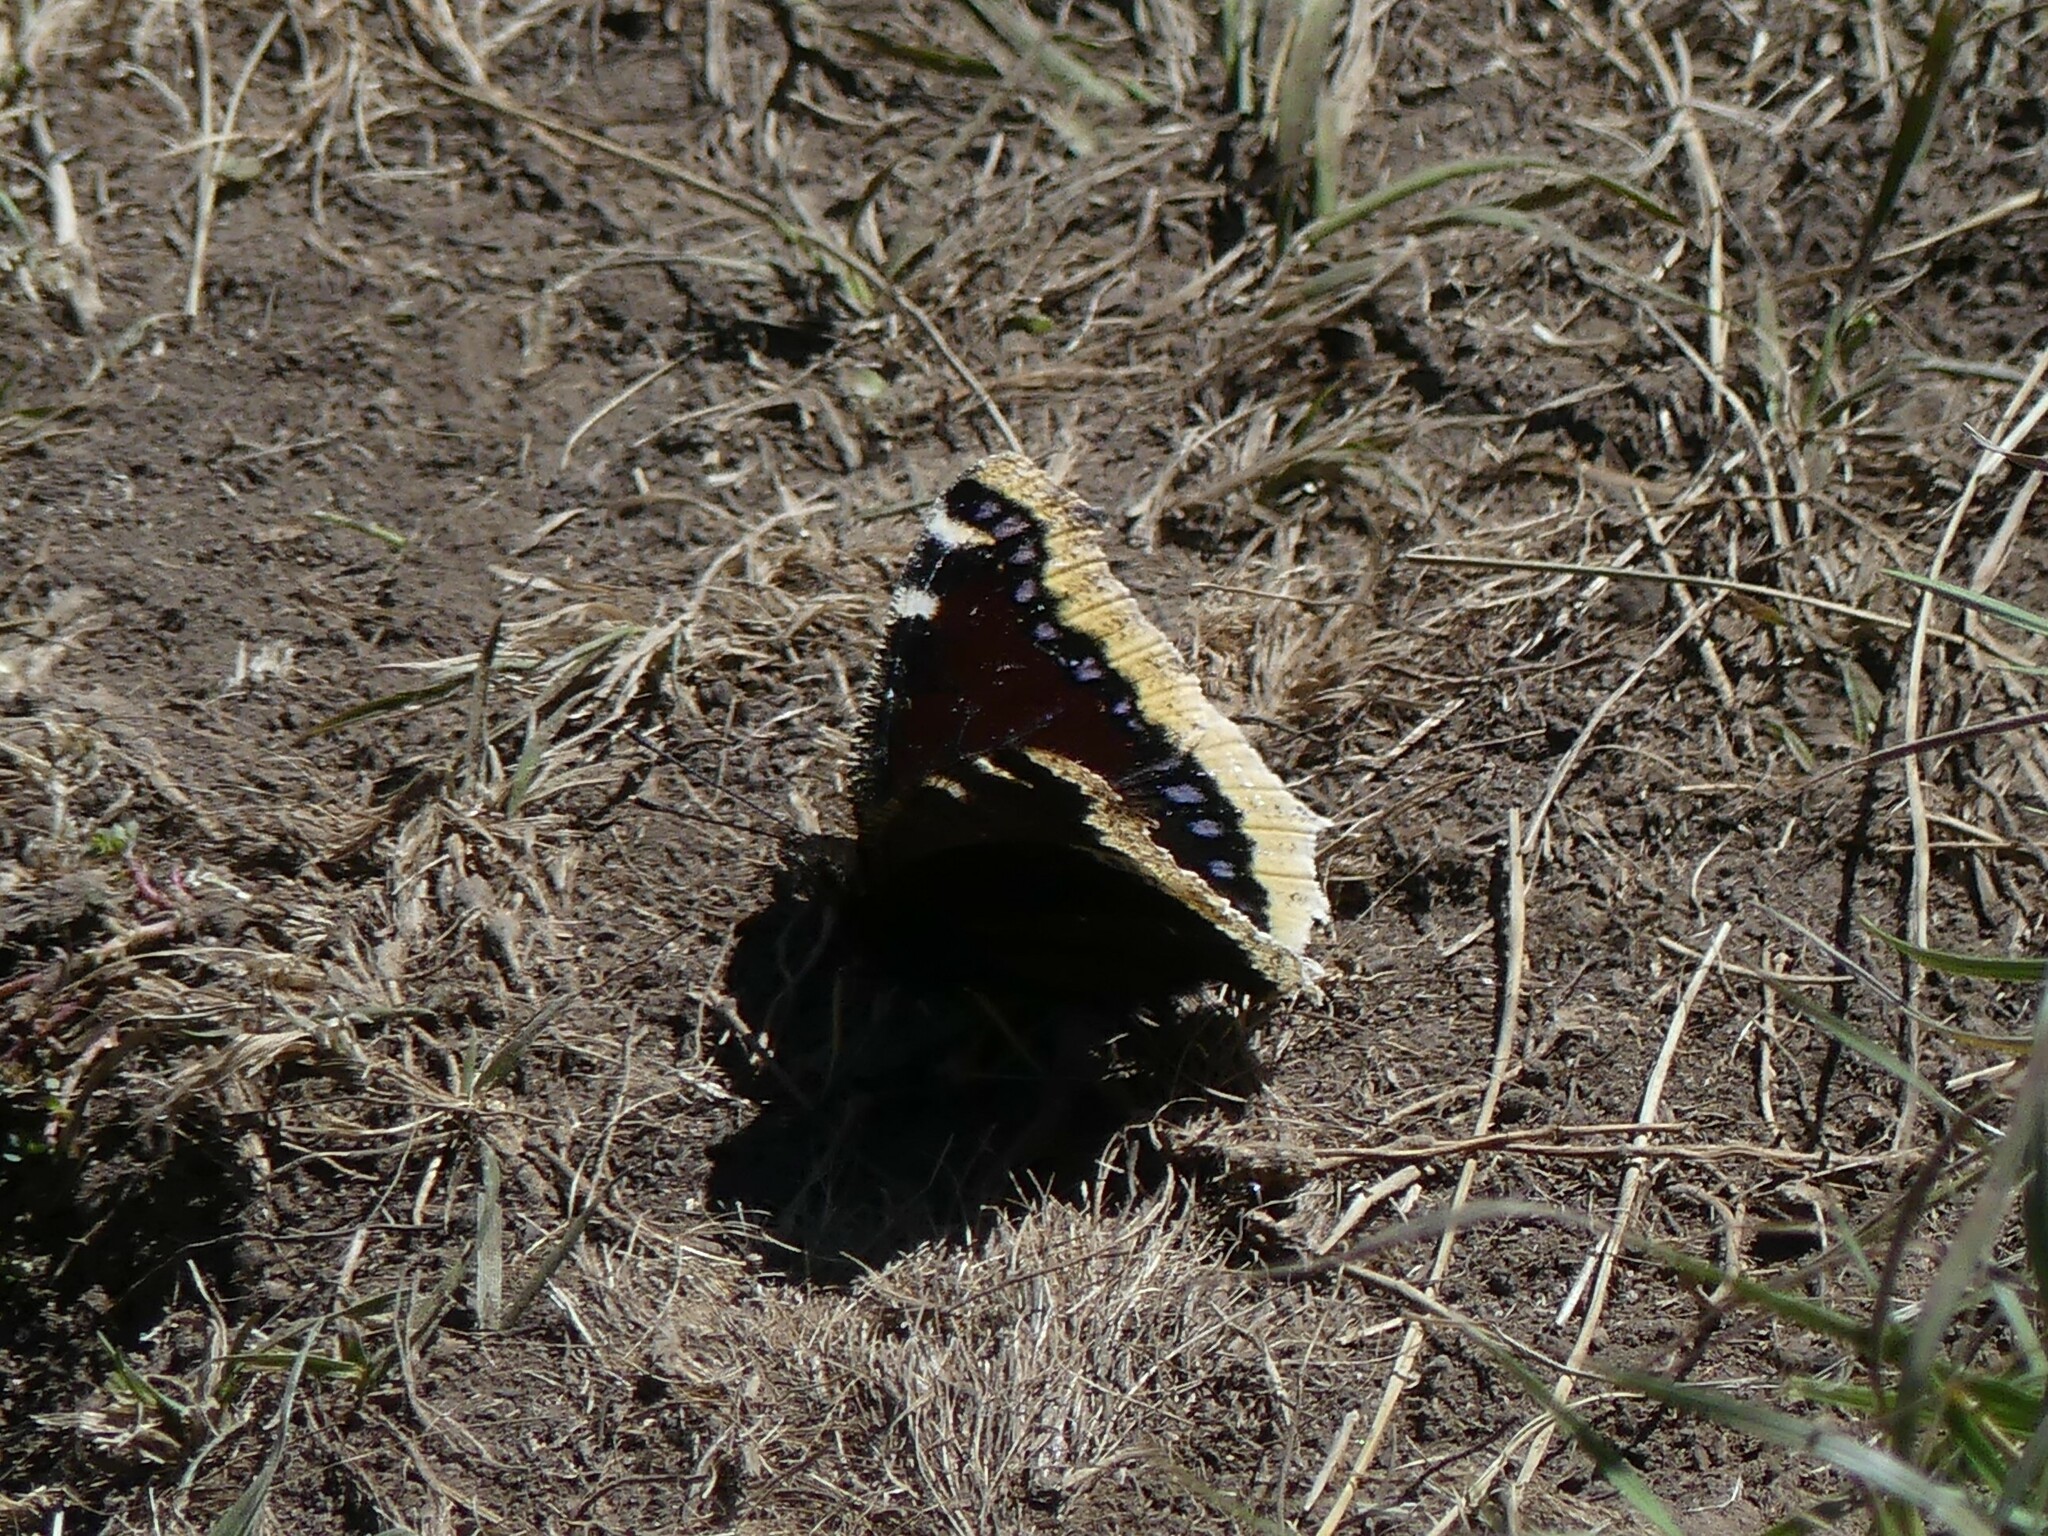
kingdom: Animalia
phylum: Arthropoda
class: Insecta
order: Lepidoptera
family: Nymphalidae
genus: Nymphalis
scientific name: Nymphalis antiopa
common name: Camberwell beauty
